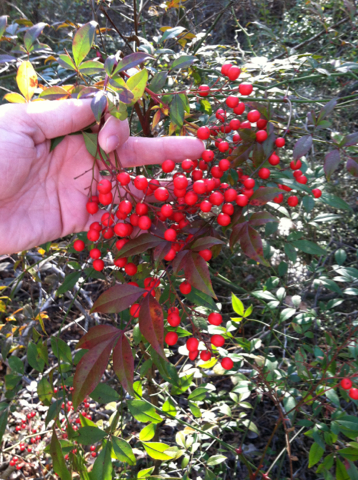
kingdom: Plantae
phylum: Tracheophyta
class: Magnoliopsida
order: Ranunculales
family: Berberidaceae
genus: Nandina
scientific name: Nandina domestica
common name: Sacred bamboo
